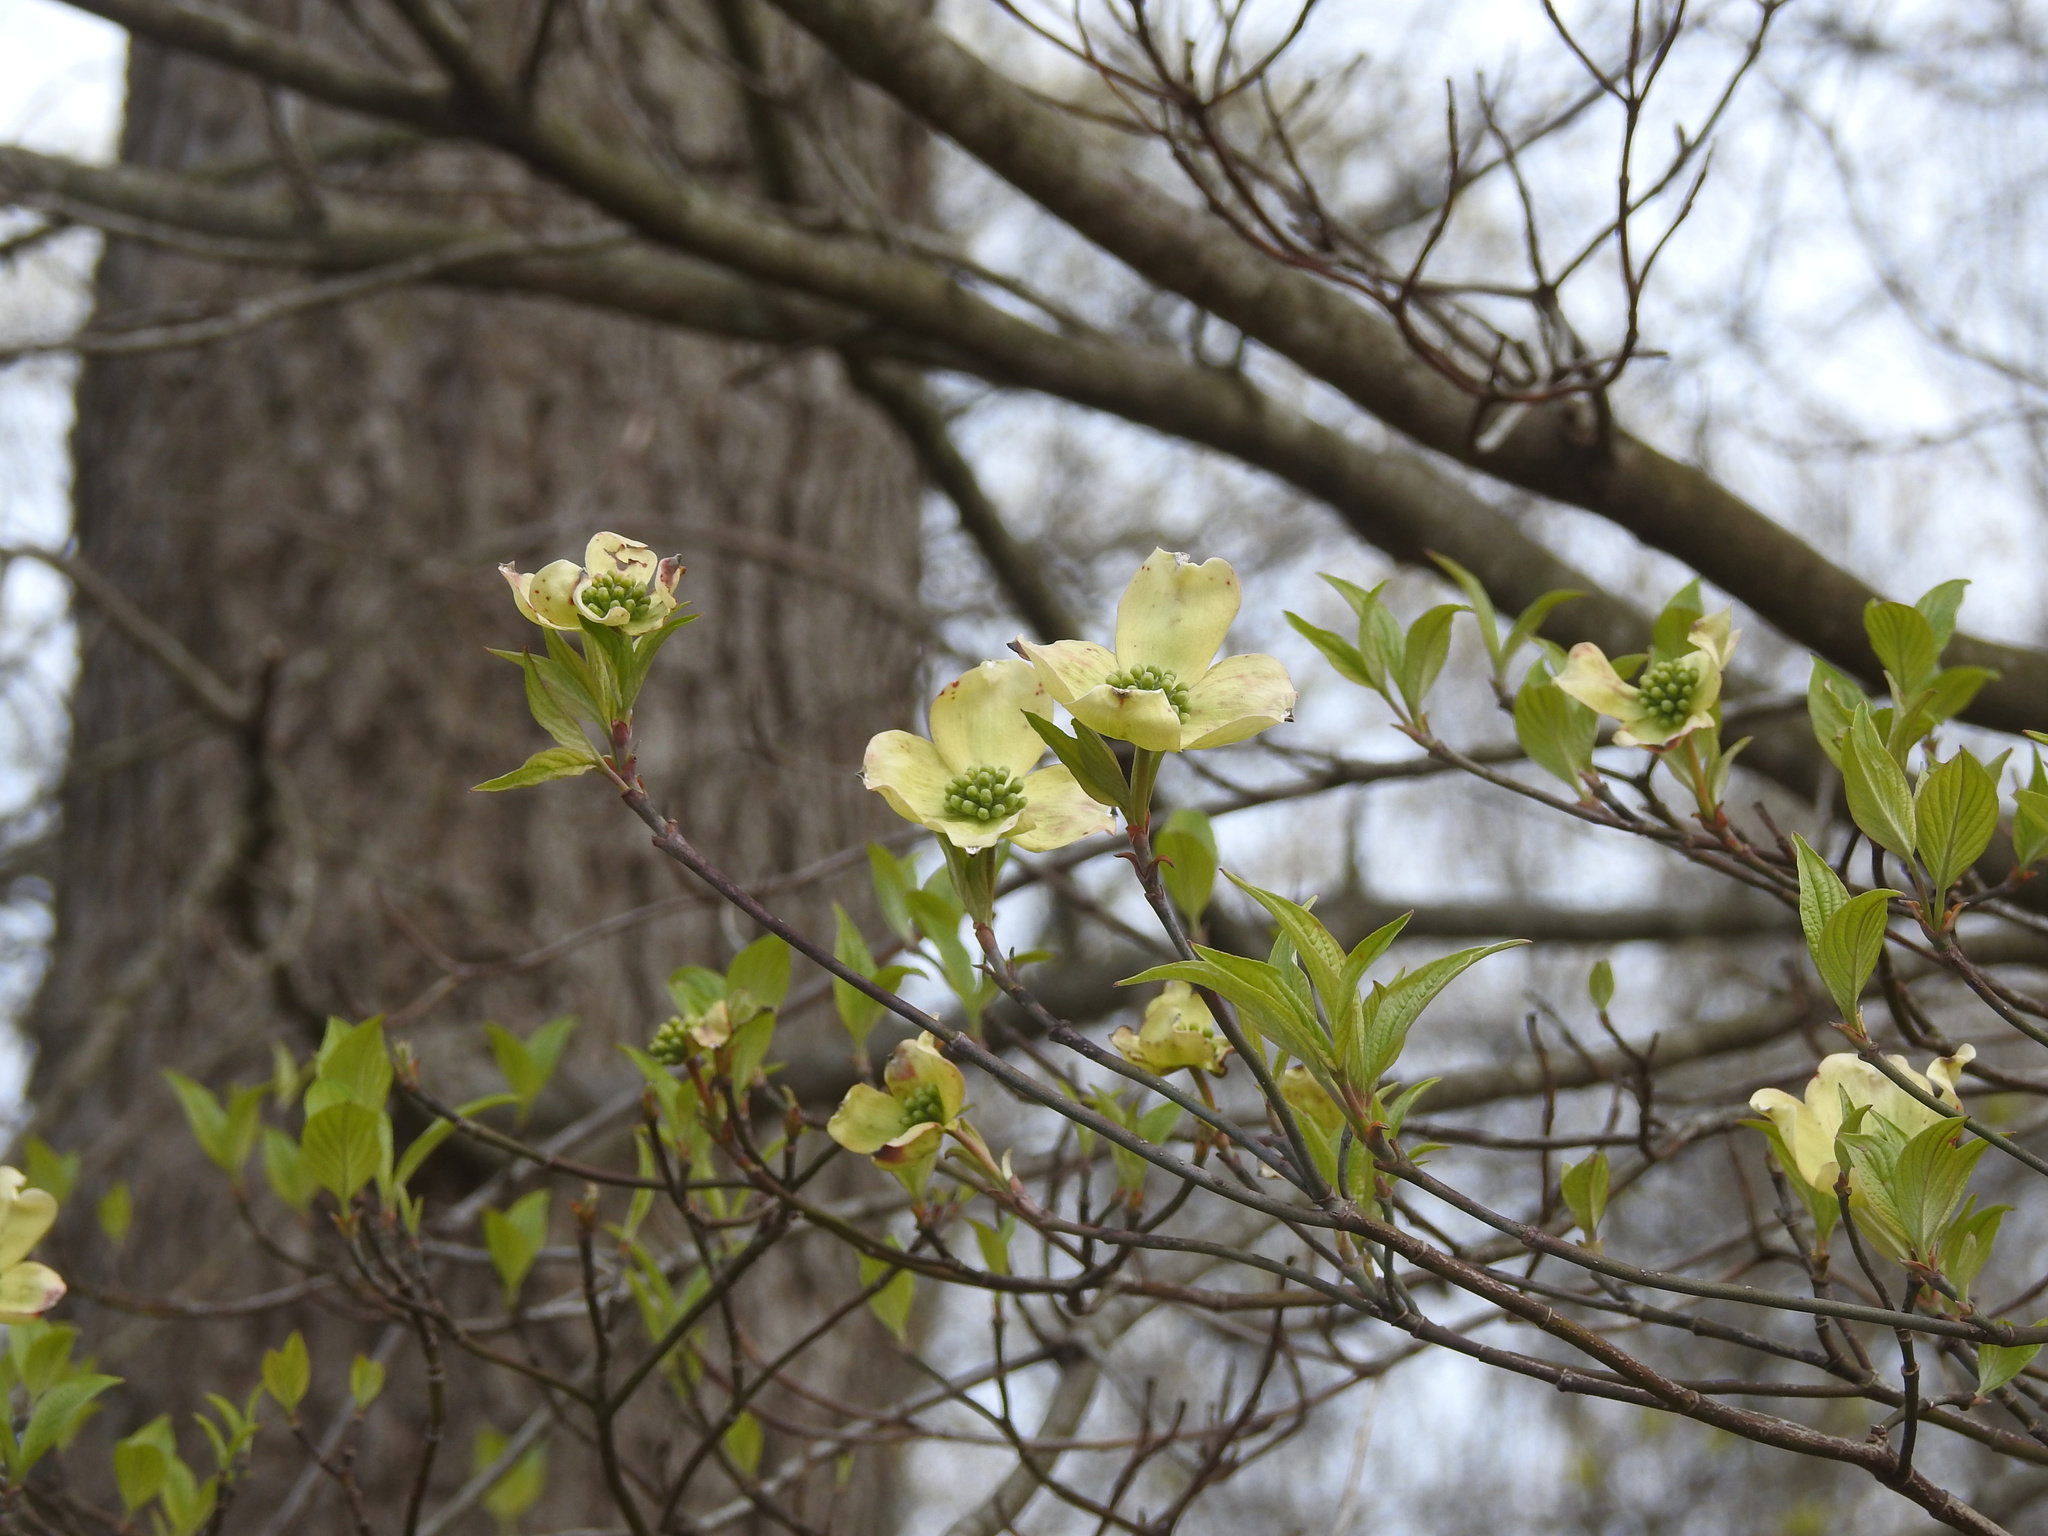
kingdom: Plantae
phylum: Tracheophyta
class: Magnoliopsida
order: Cornales
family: Cornaceae
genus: Cornus
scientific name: Cornus florida
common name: Flowering dogwood
